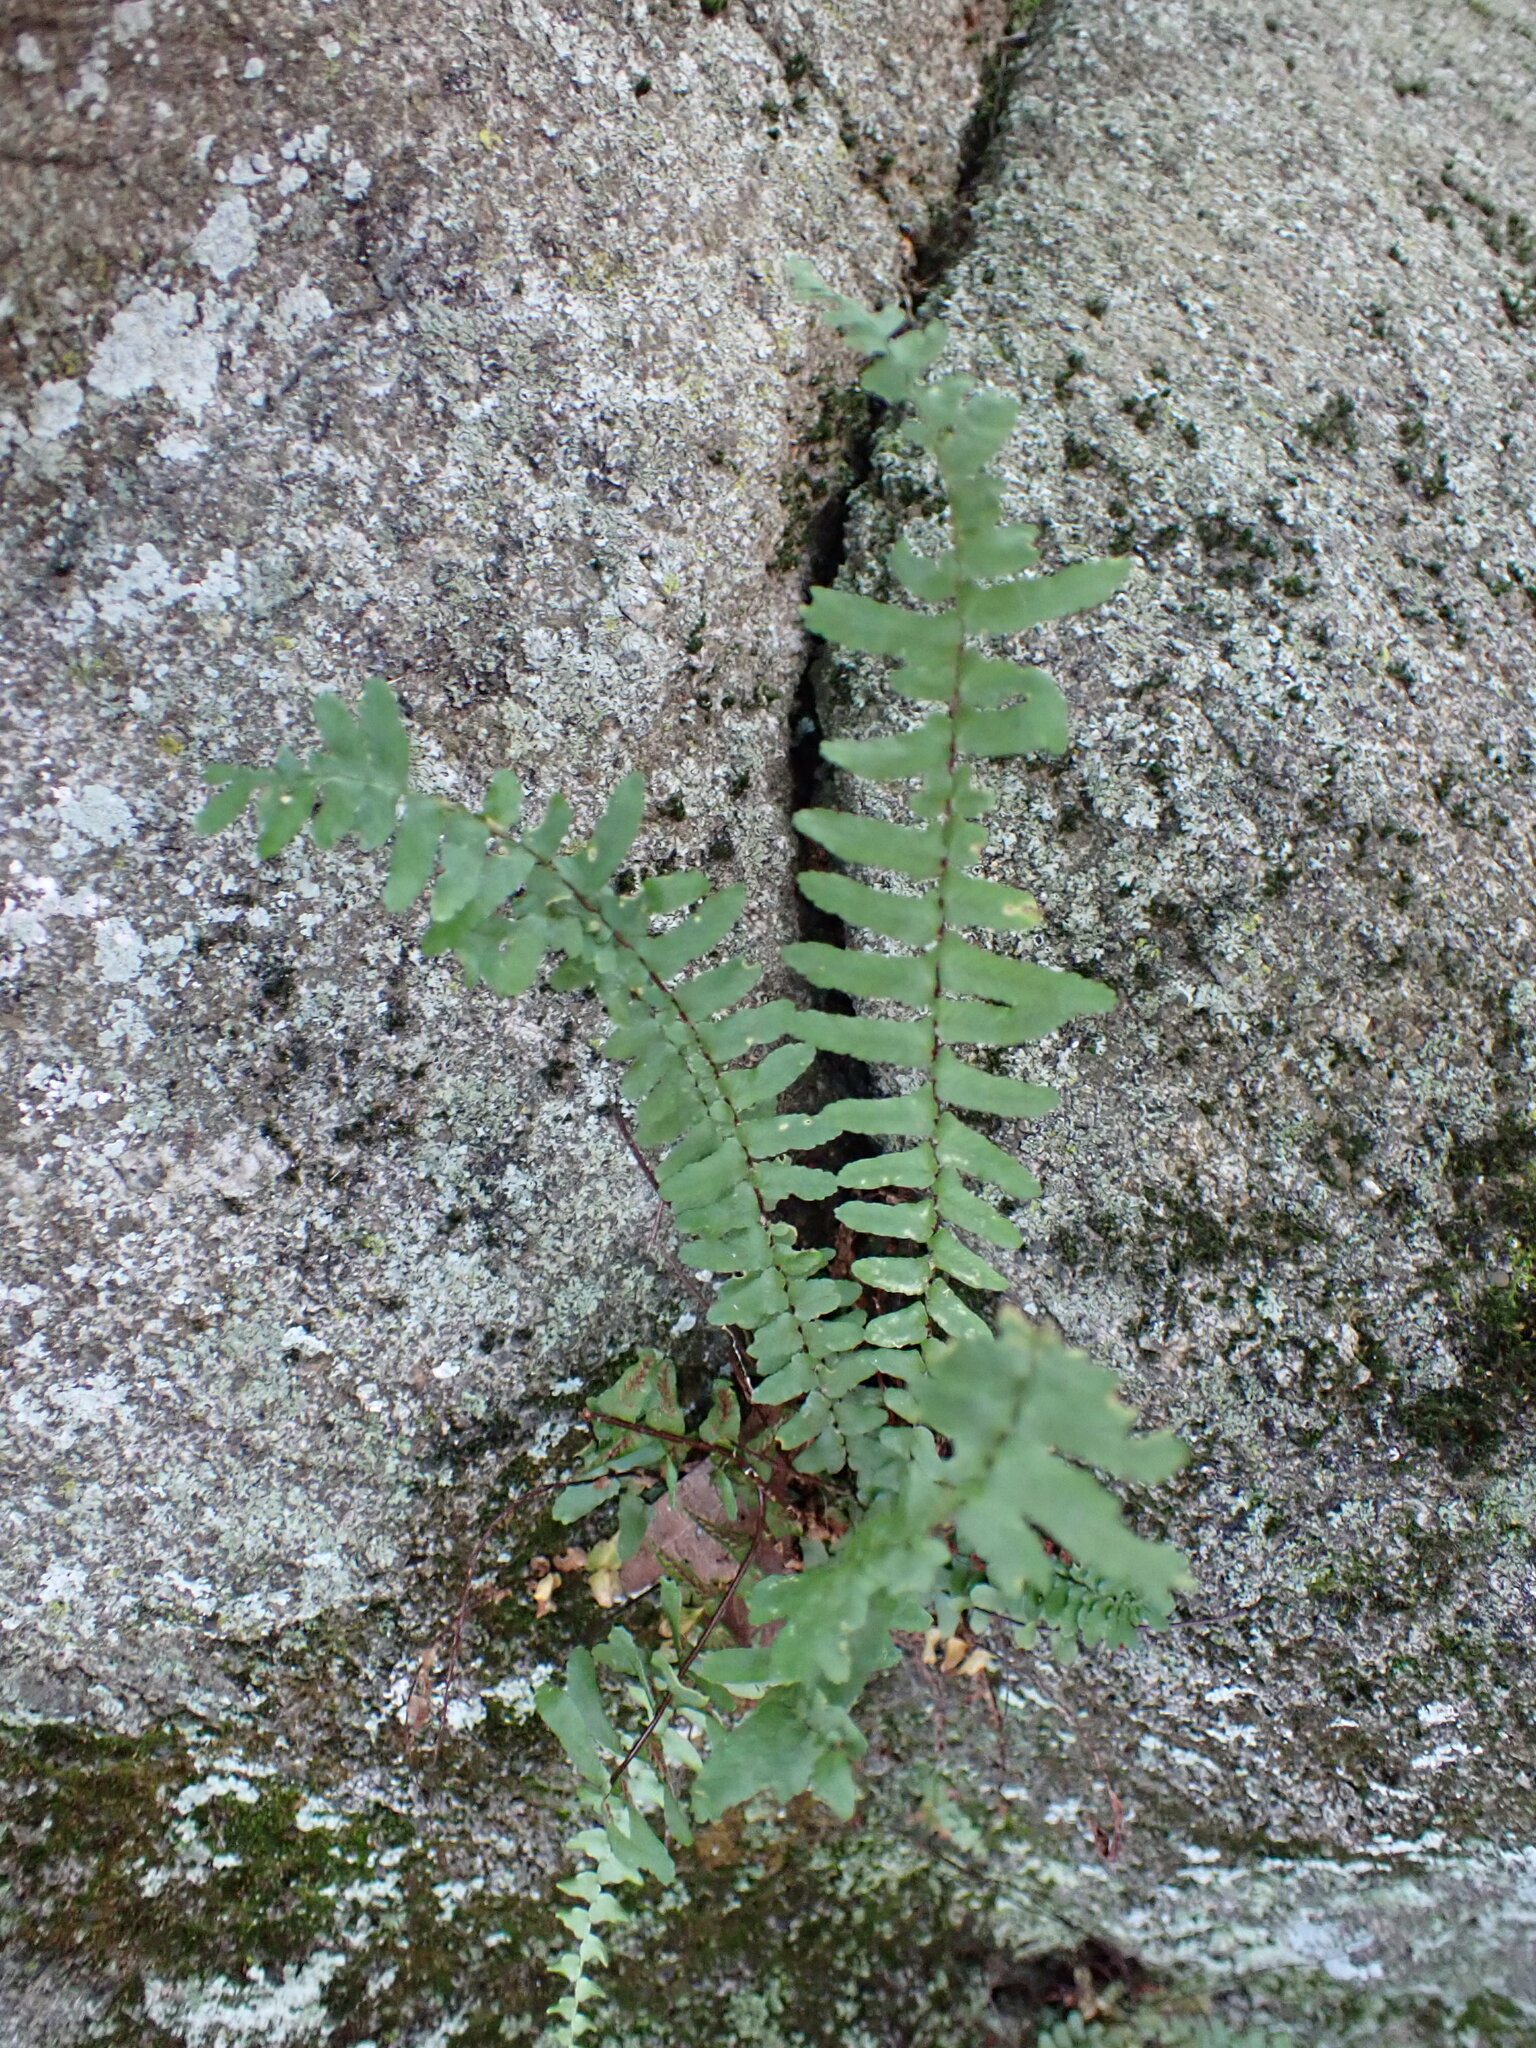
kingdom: Plantae
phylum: Tracheophyta
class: Polypodiopsida
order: Polypodiales
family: Aspleniaceae
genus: Asplenium
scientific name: Asplenium platyneuron
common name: Ebony spleenwort
